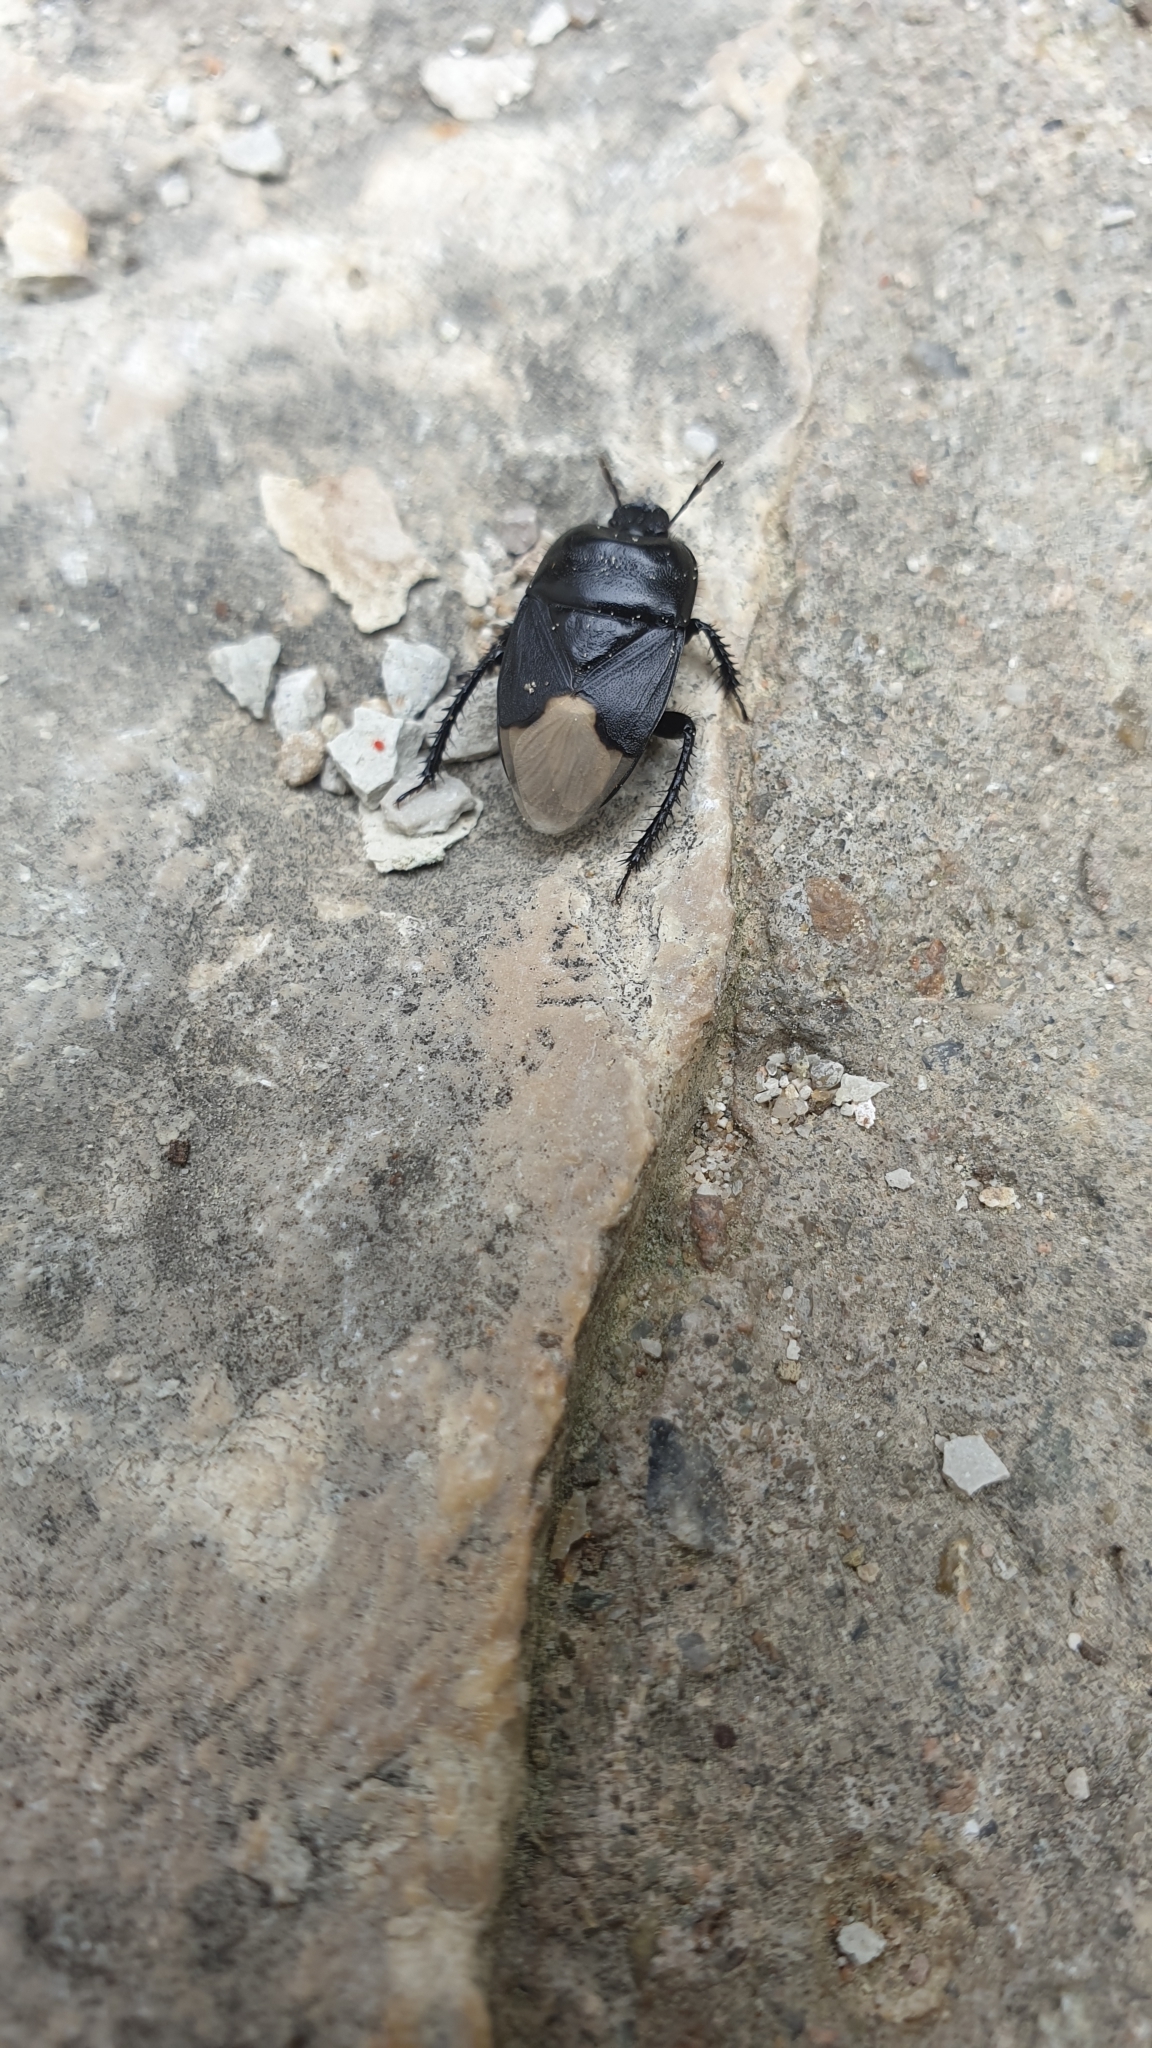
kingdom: Animalia
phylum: Arthropoda
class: Insecta
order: Hemiptera
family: Cydnidae
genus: Cydnus
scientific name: Cydnus aterrimus
